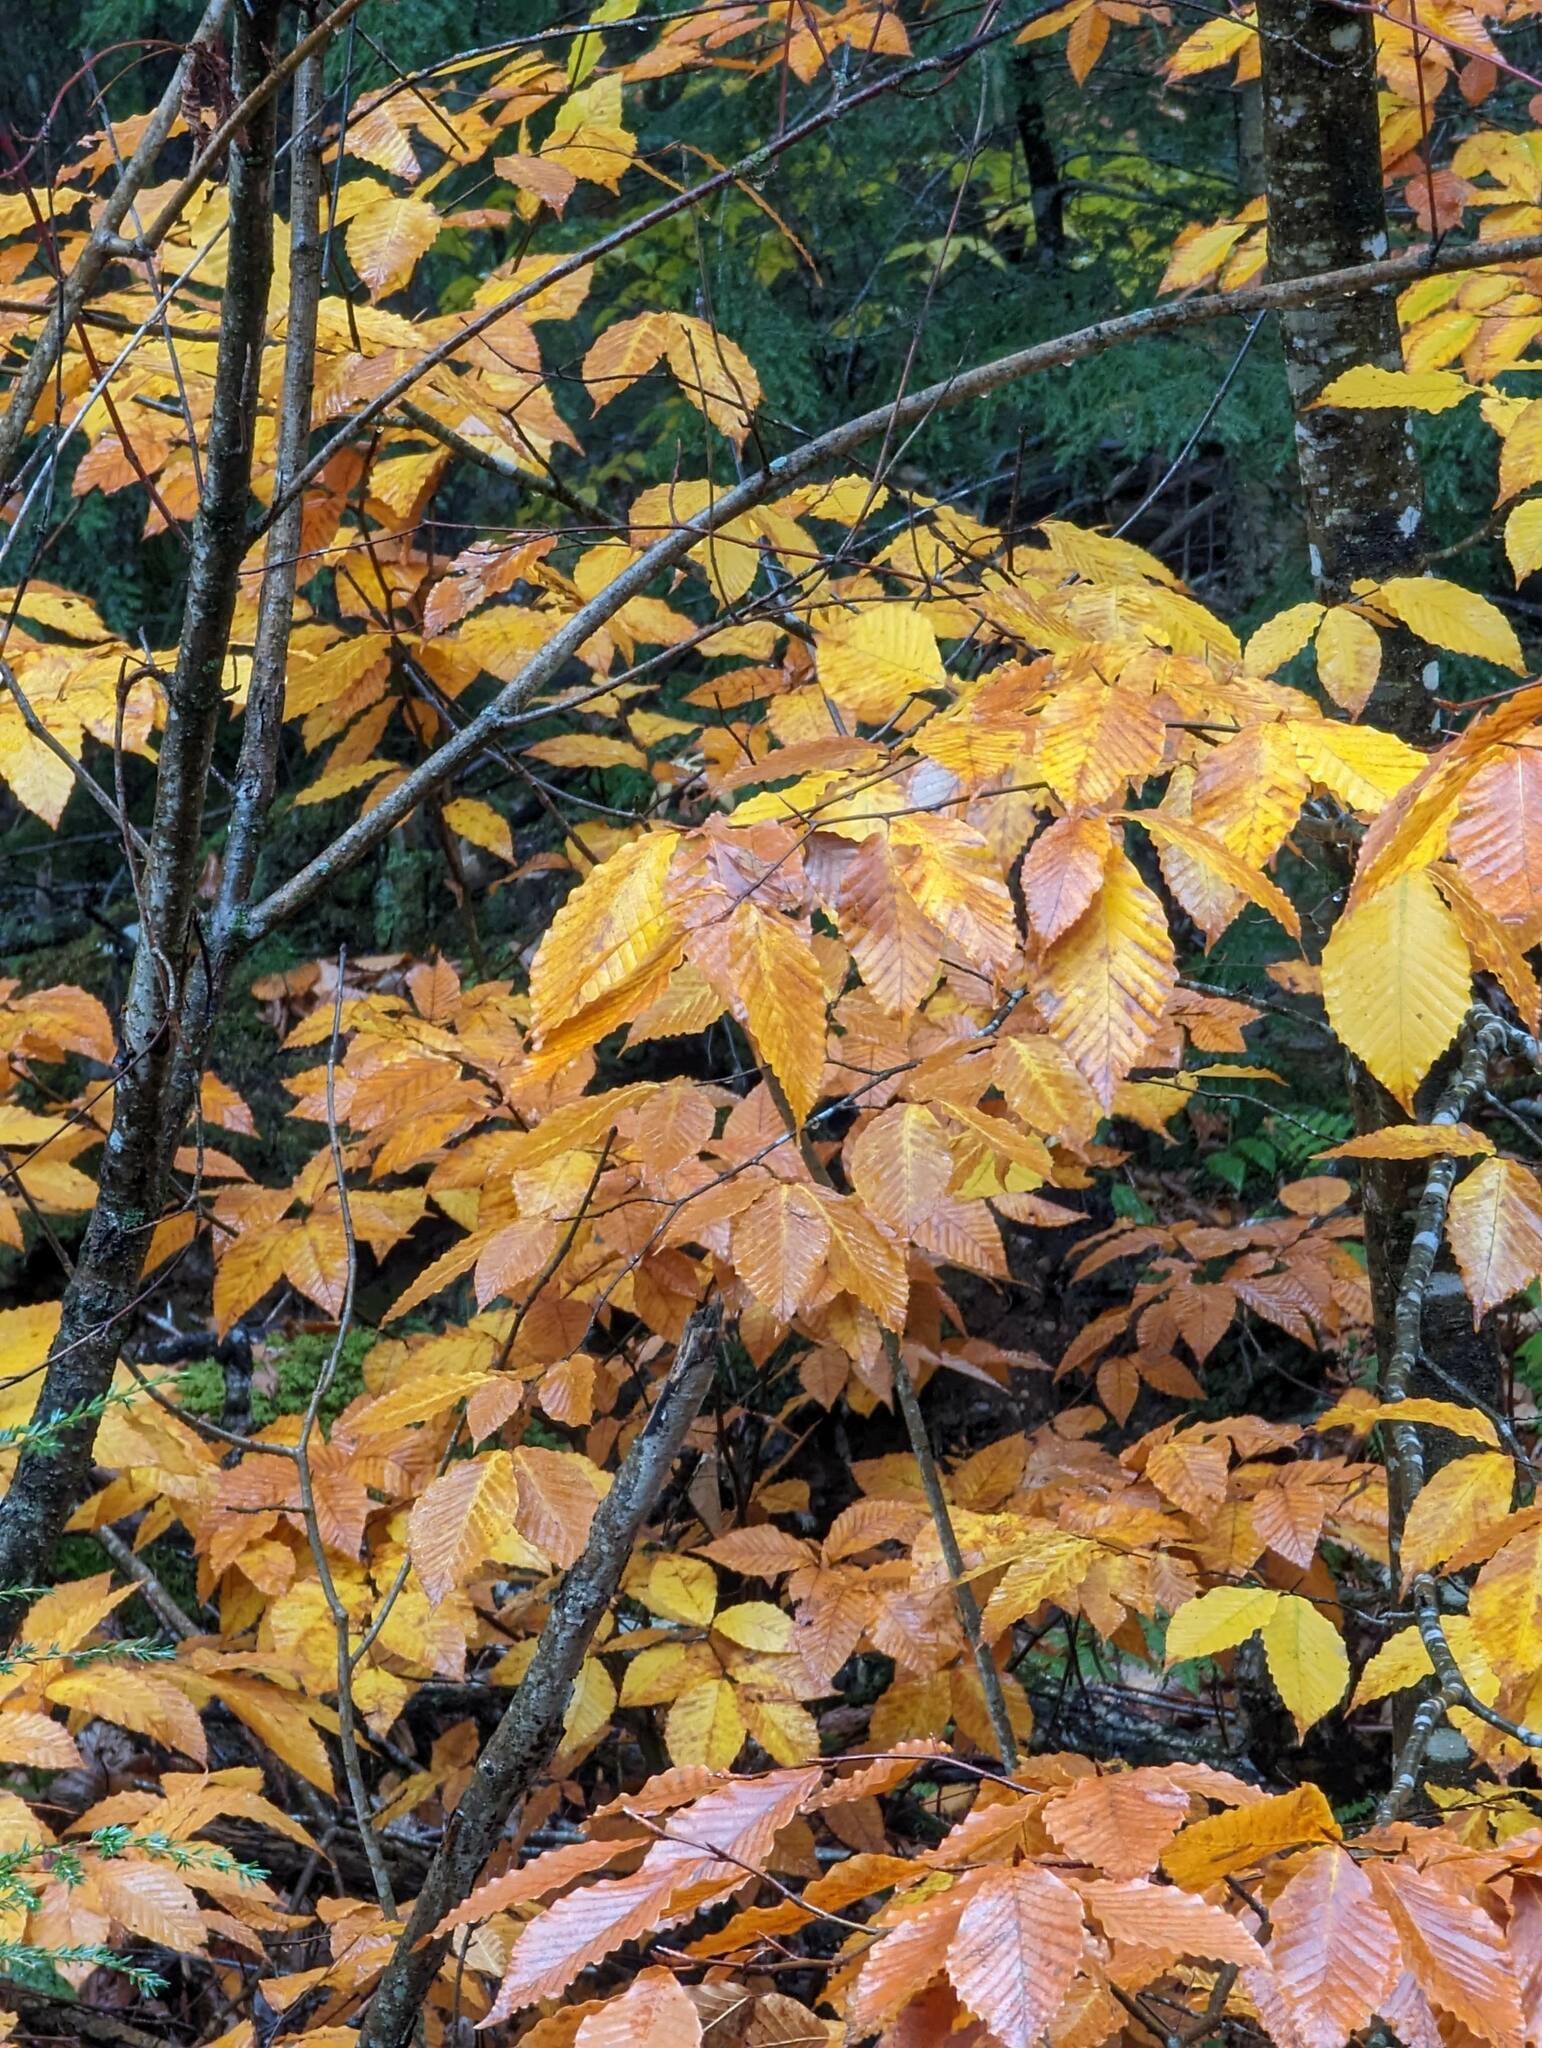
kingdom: Plantae
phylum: Tracheophyta
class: Magnoliopsida
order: Fagales
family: Fagaceae
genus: Fagus
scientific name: Fagus grandifolia
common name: American beech
